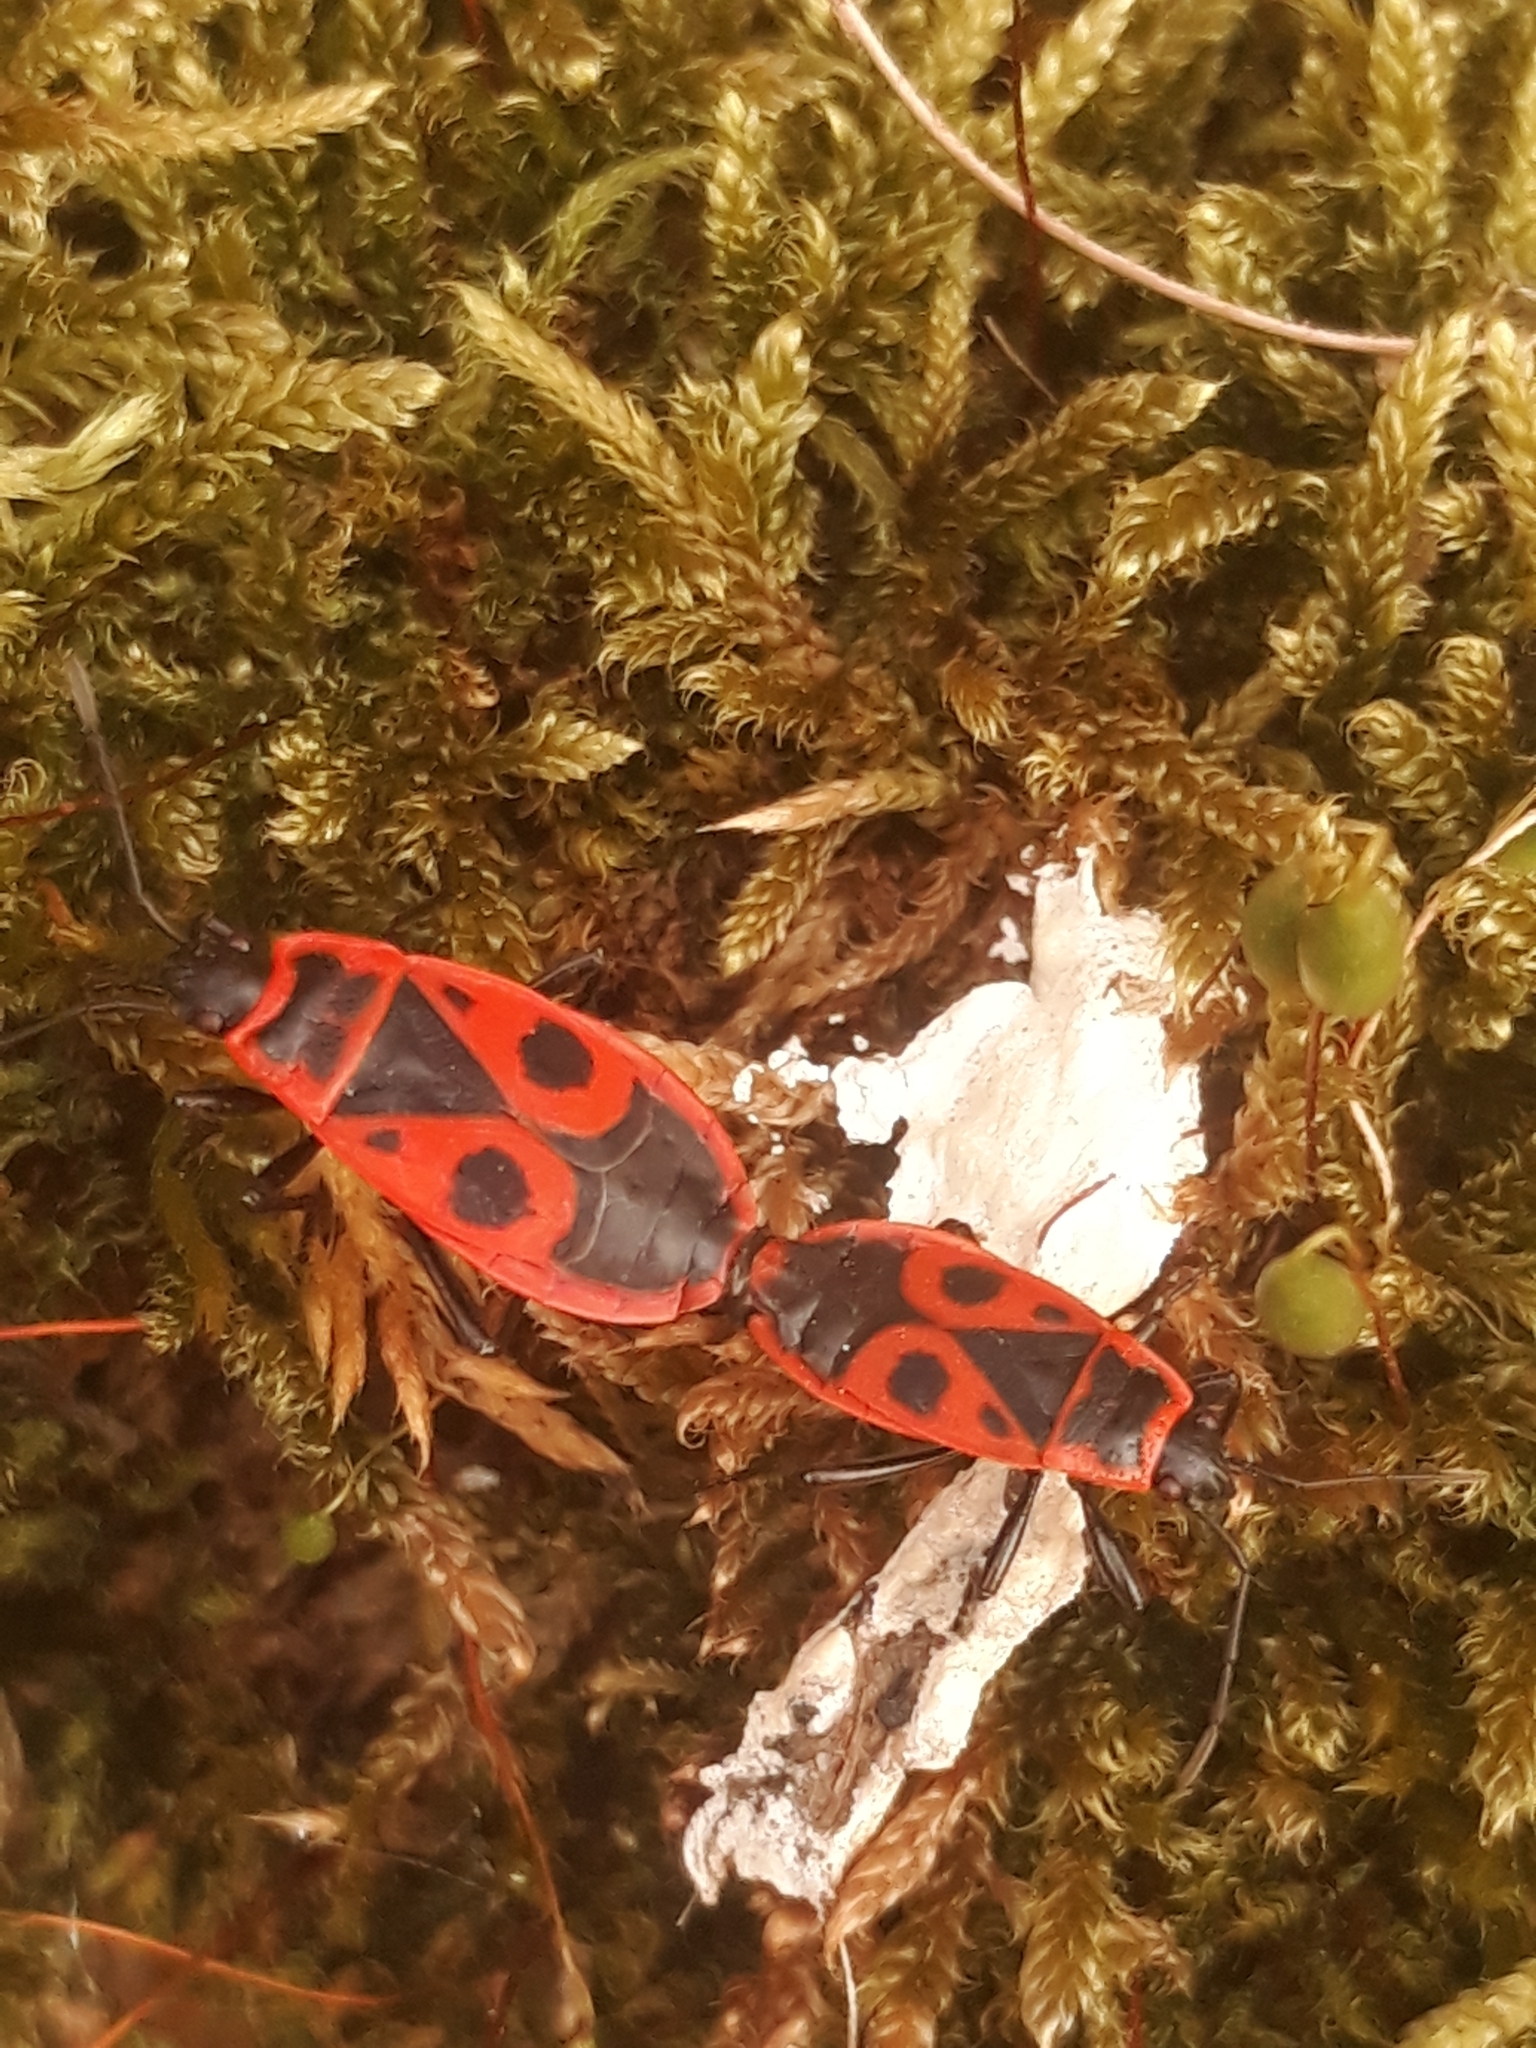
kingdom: Animalia
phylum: Arthropoda
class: Insecta
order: Hemiptera
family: Pyrrhocoridae
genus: Pyrrhocoris
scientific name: Pyrrhocoris apterus
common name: Firebug
